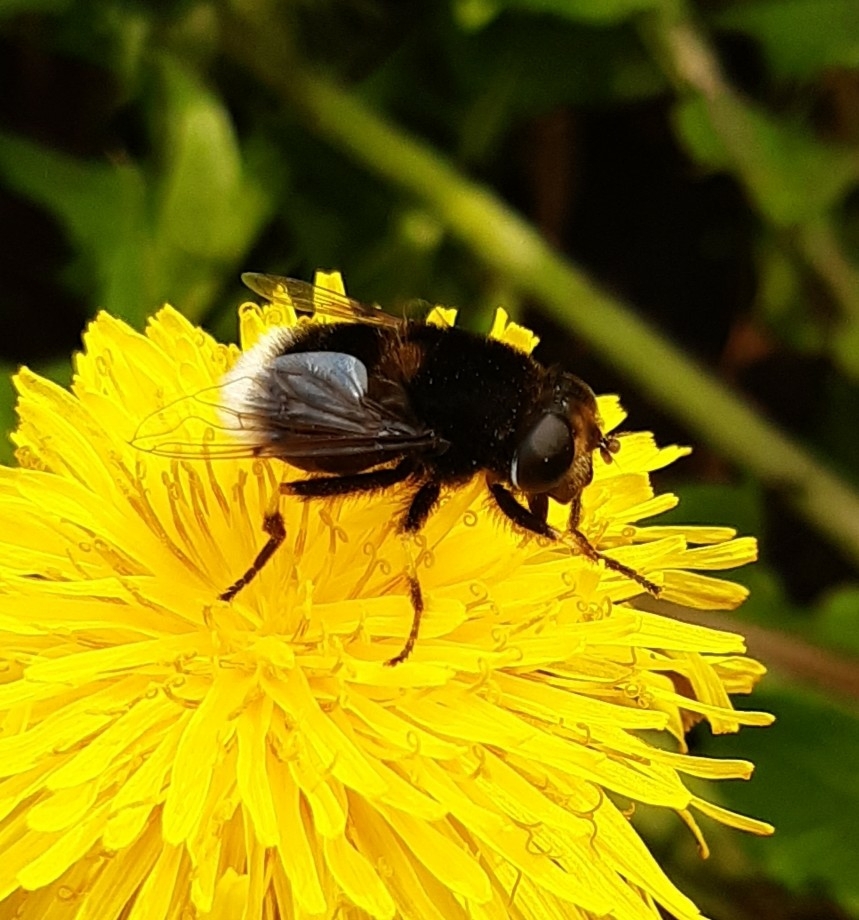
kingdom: Animalia
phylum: Arthropoda
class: Insecta
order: Diptera
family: Syrphidae
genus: Eristalis
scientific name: Eristalis intricaria
